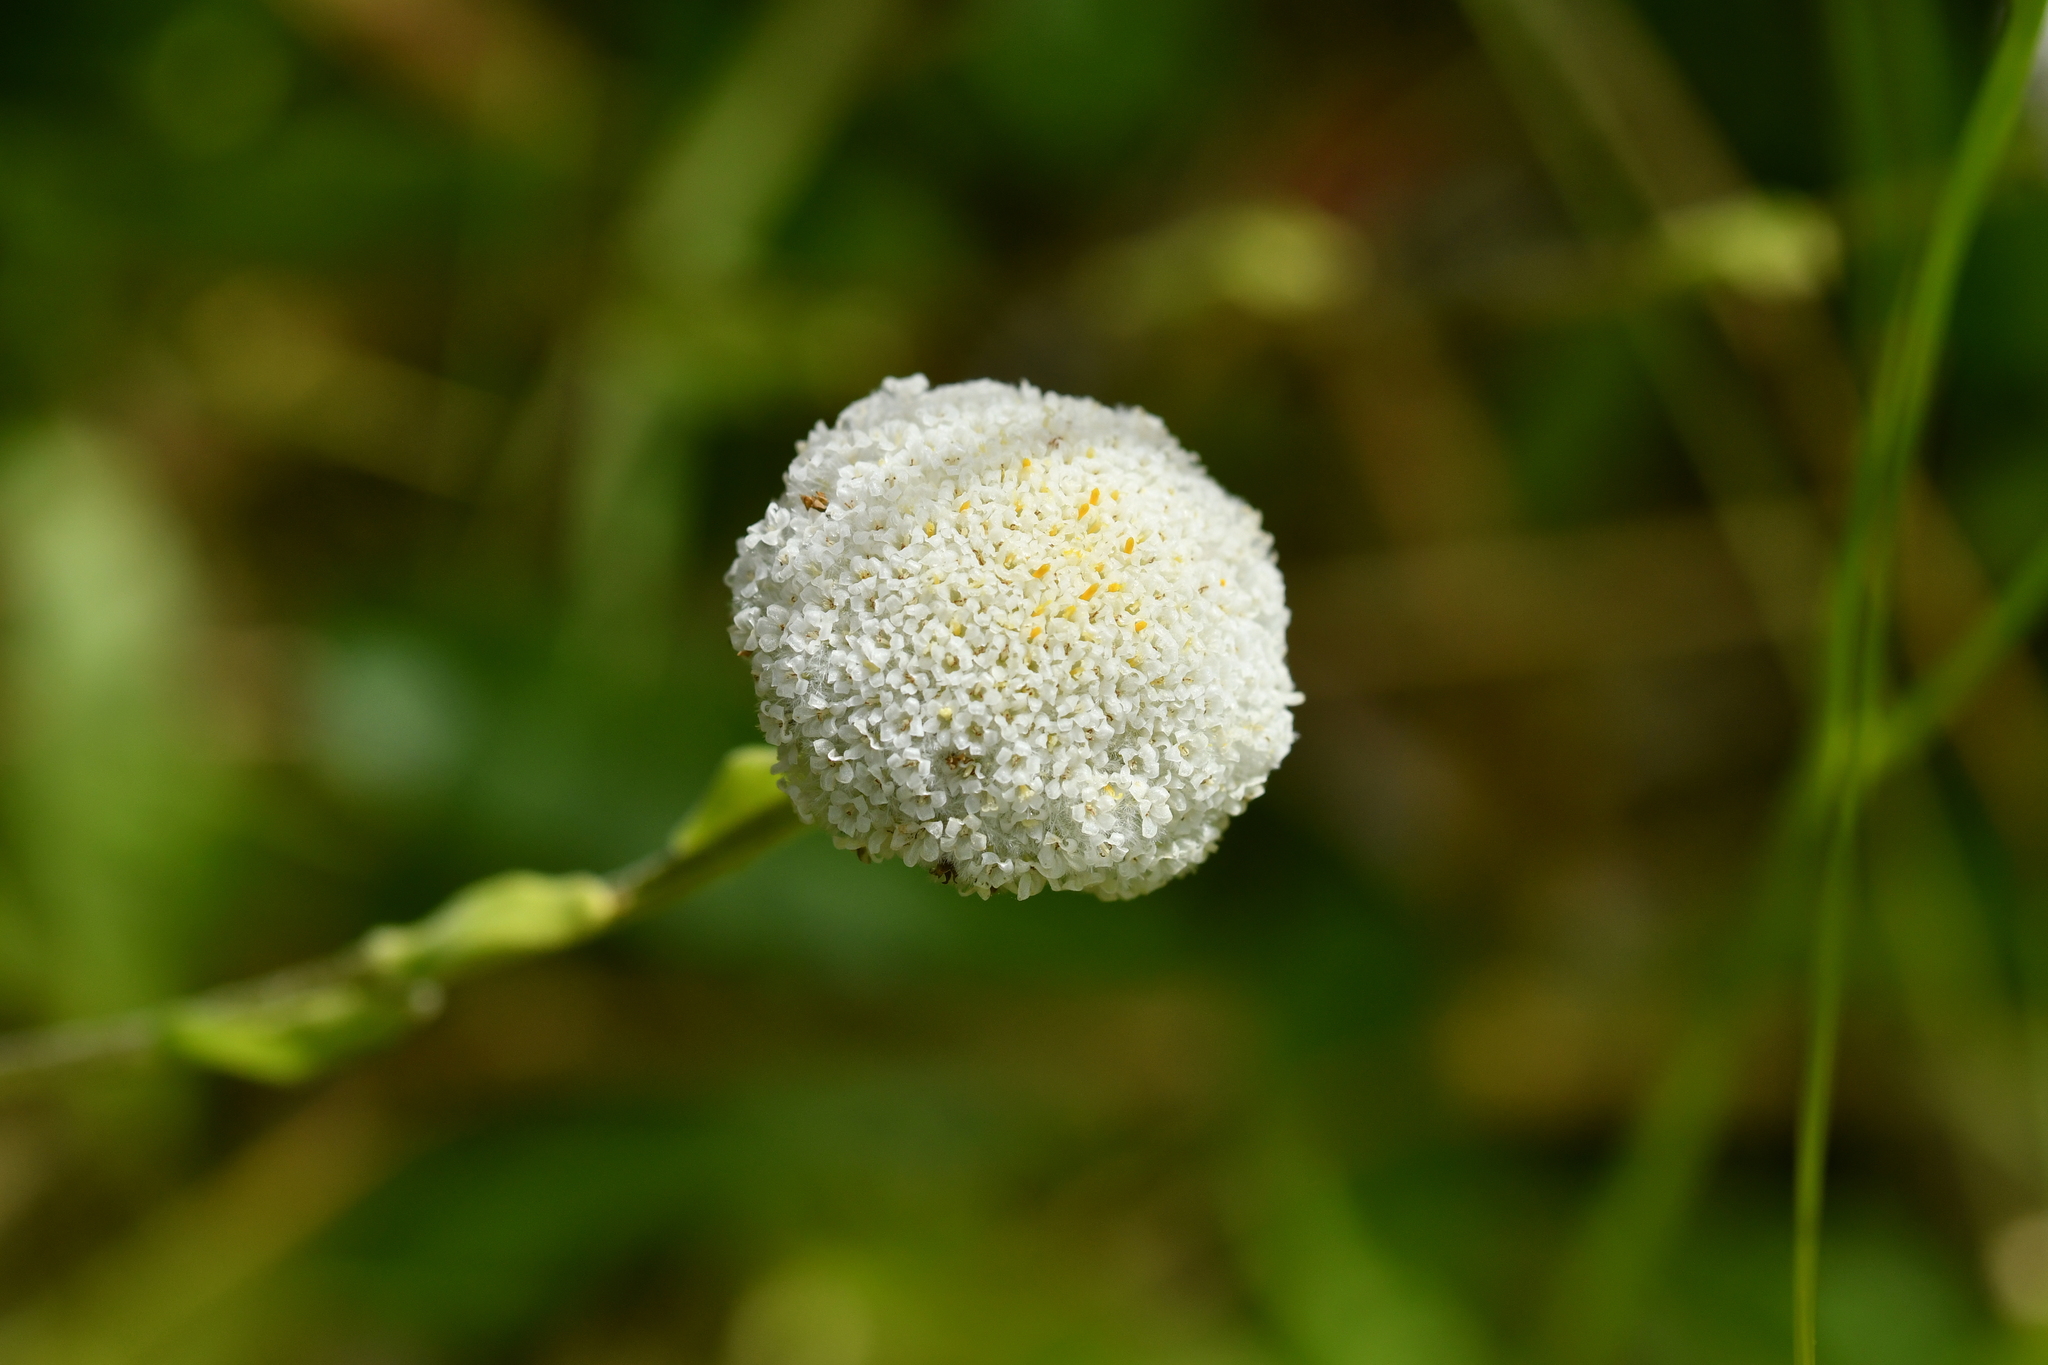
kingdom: Plantae
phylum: Tracheophyta
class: Magnoliopsida
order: Asterales
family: Asteraceae
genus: Craspedia
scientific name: Craspedia uniflora
